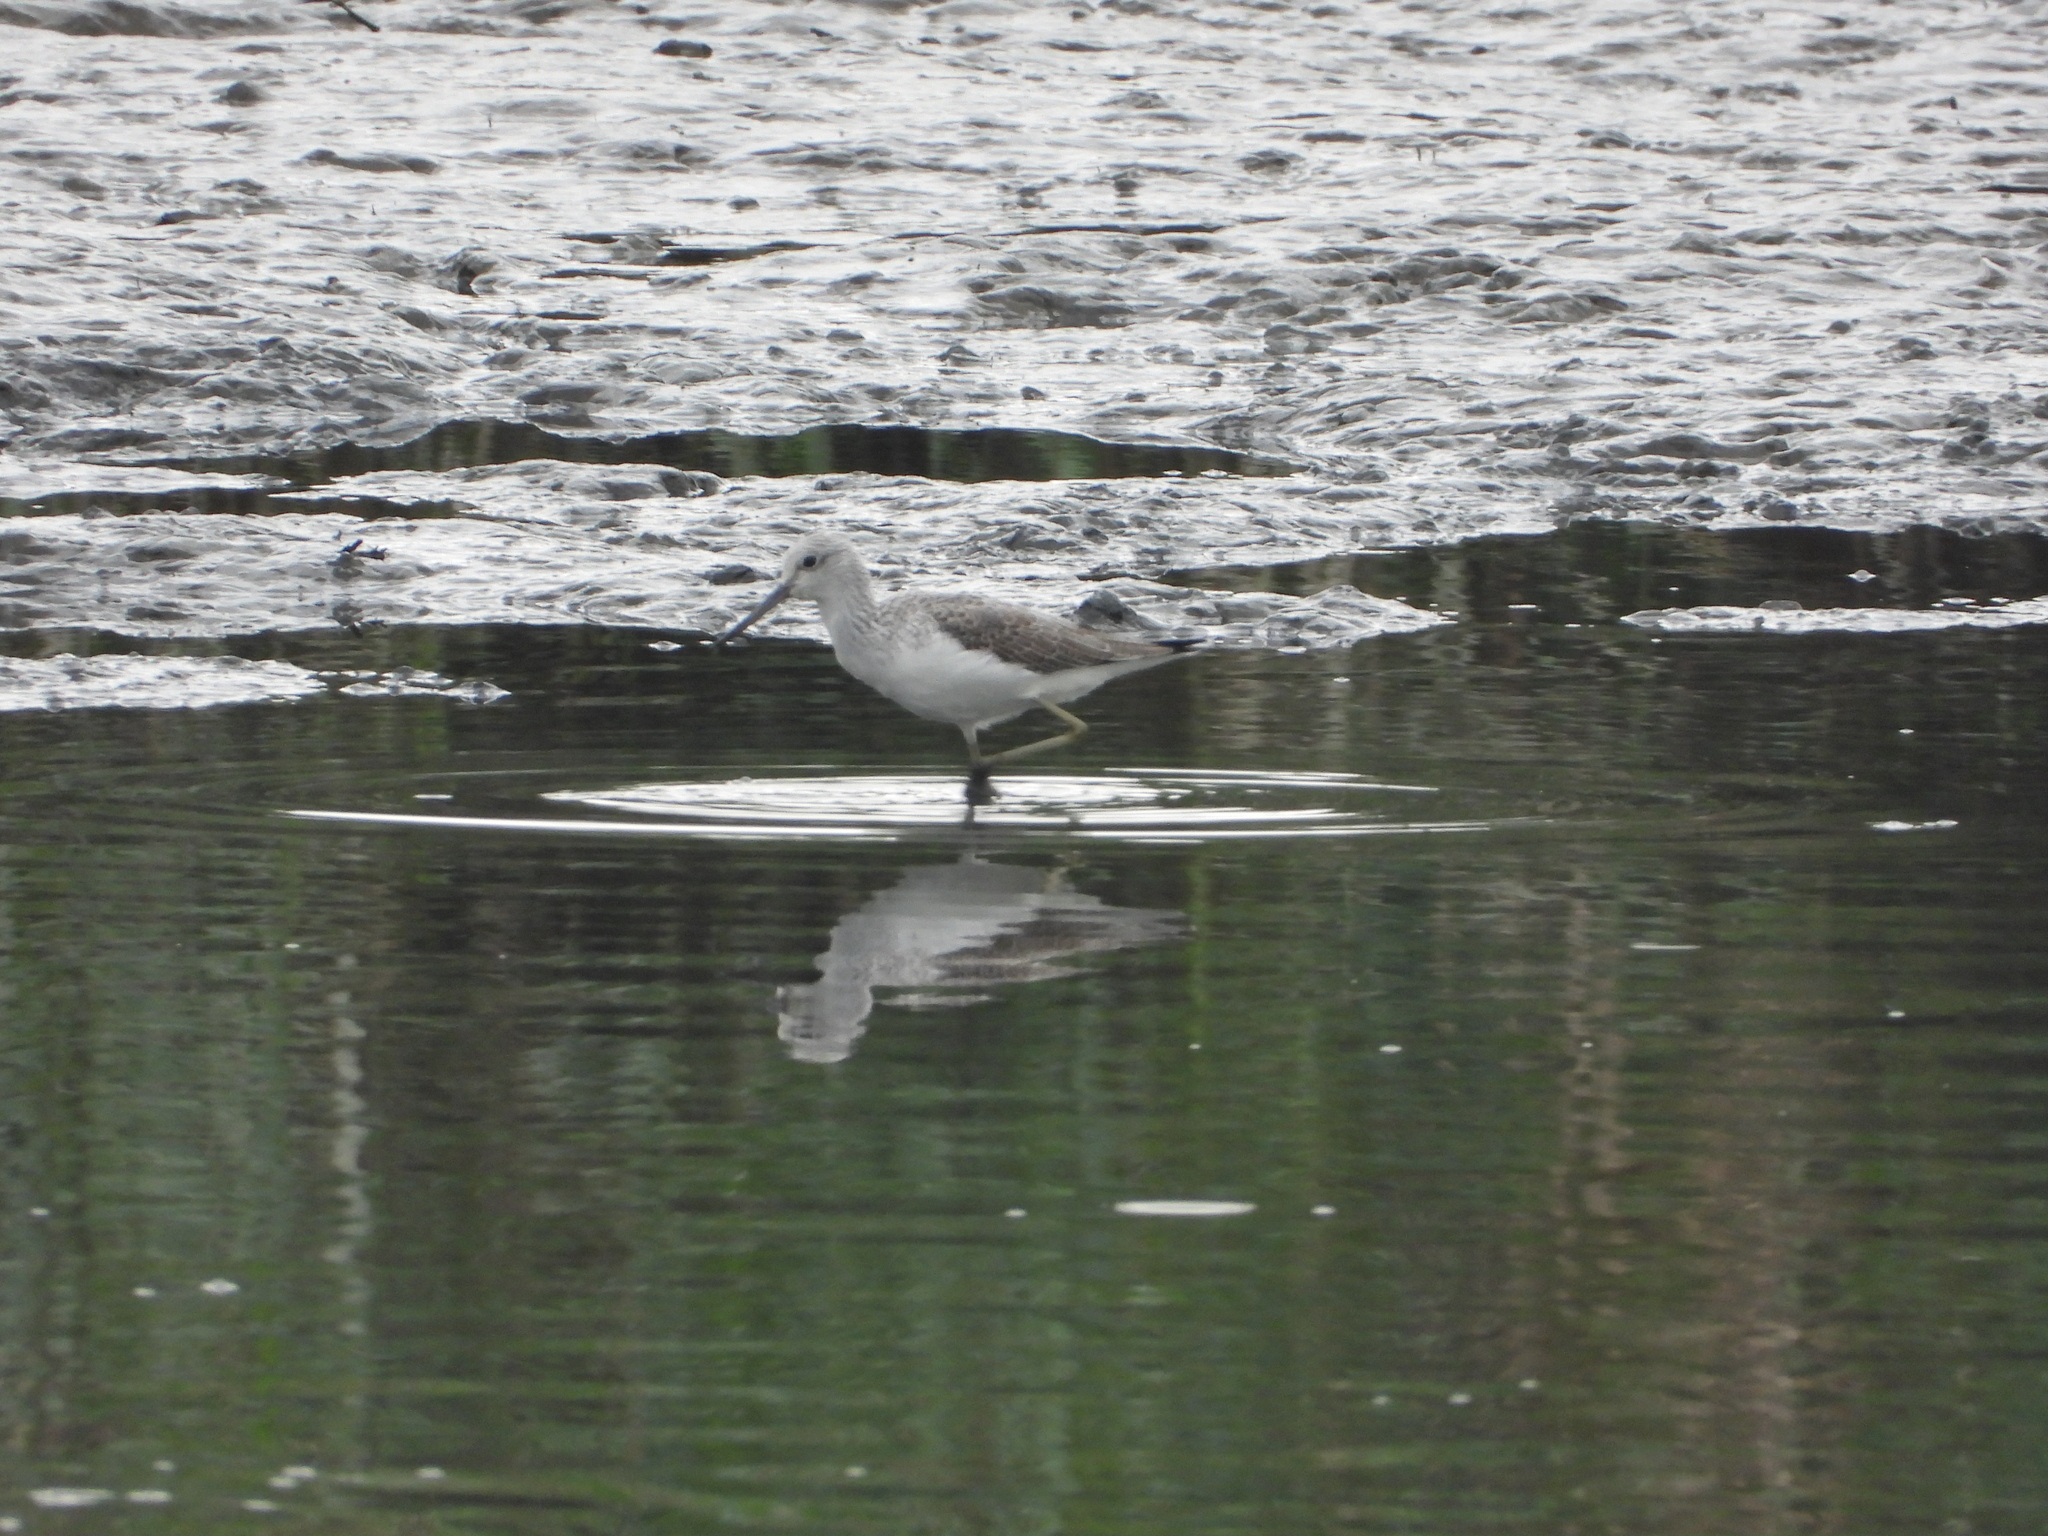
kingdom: Animalia
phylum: Chordata
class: Aves
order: Charadriiformes
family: Scolopacidae
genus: Tringa
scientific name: Tringa nebularia
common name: Common greenshank
